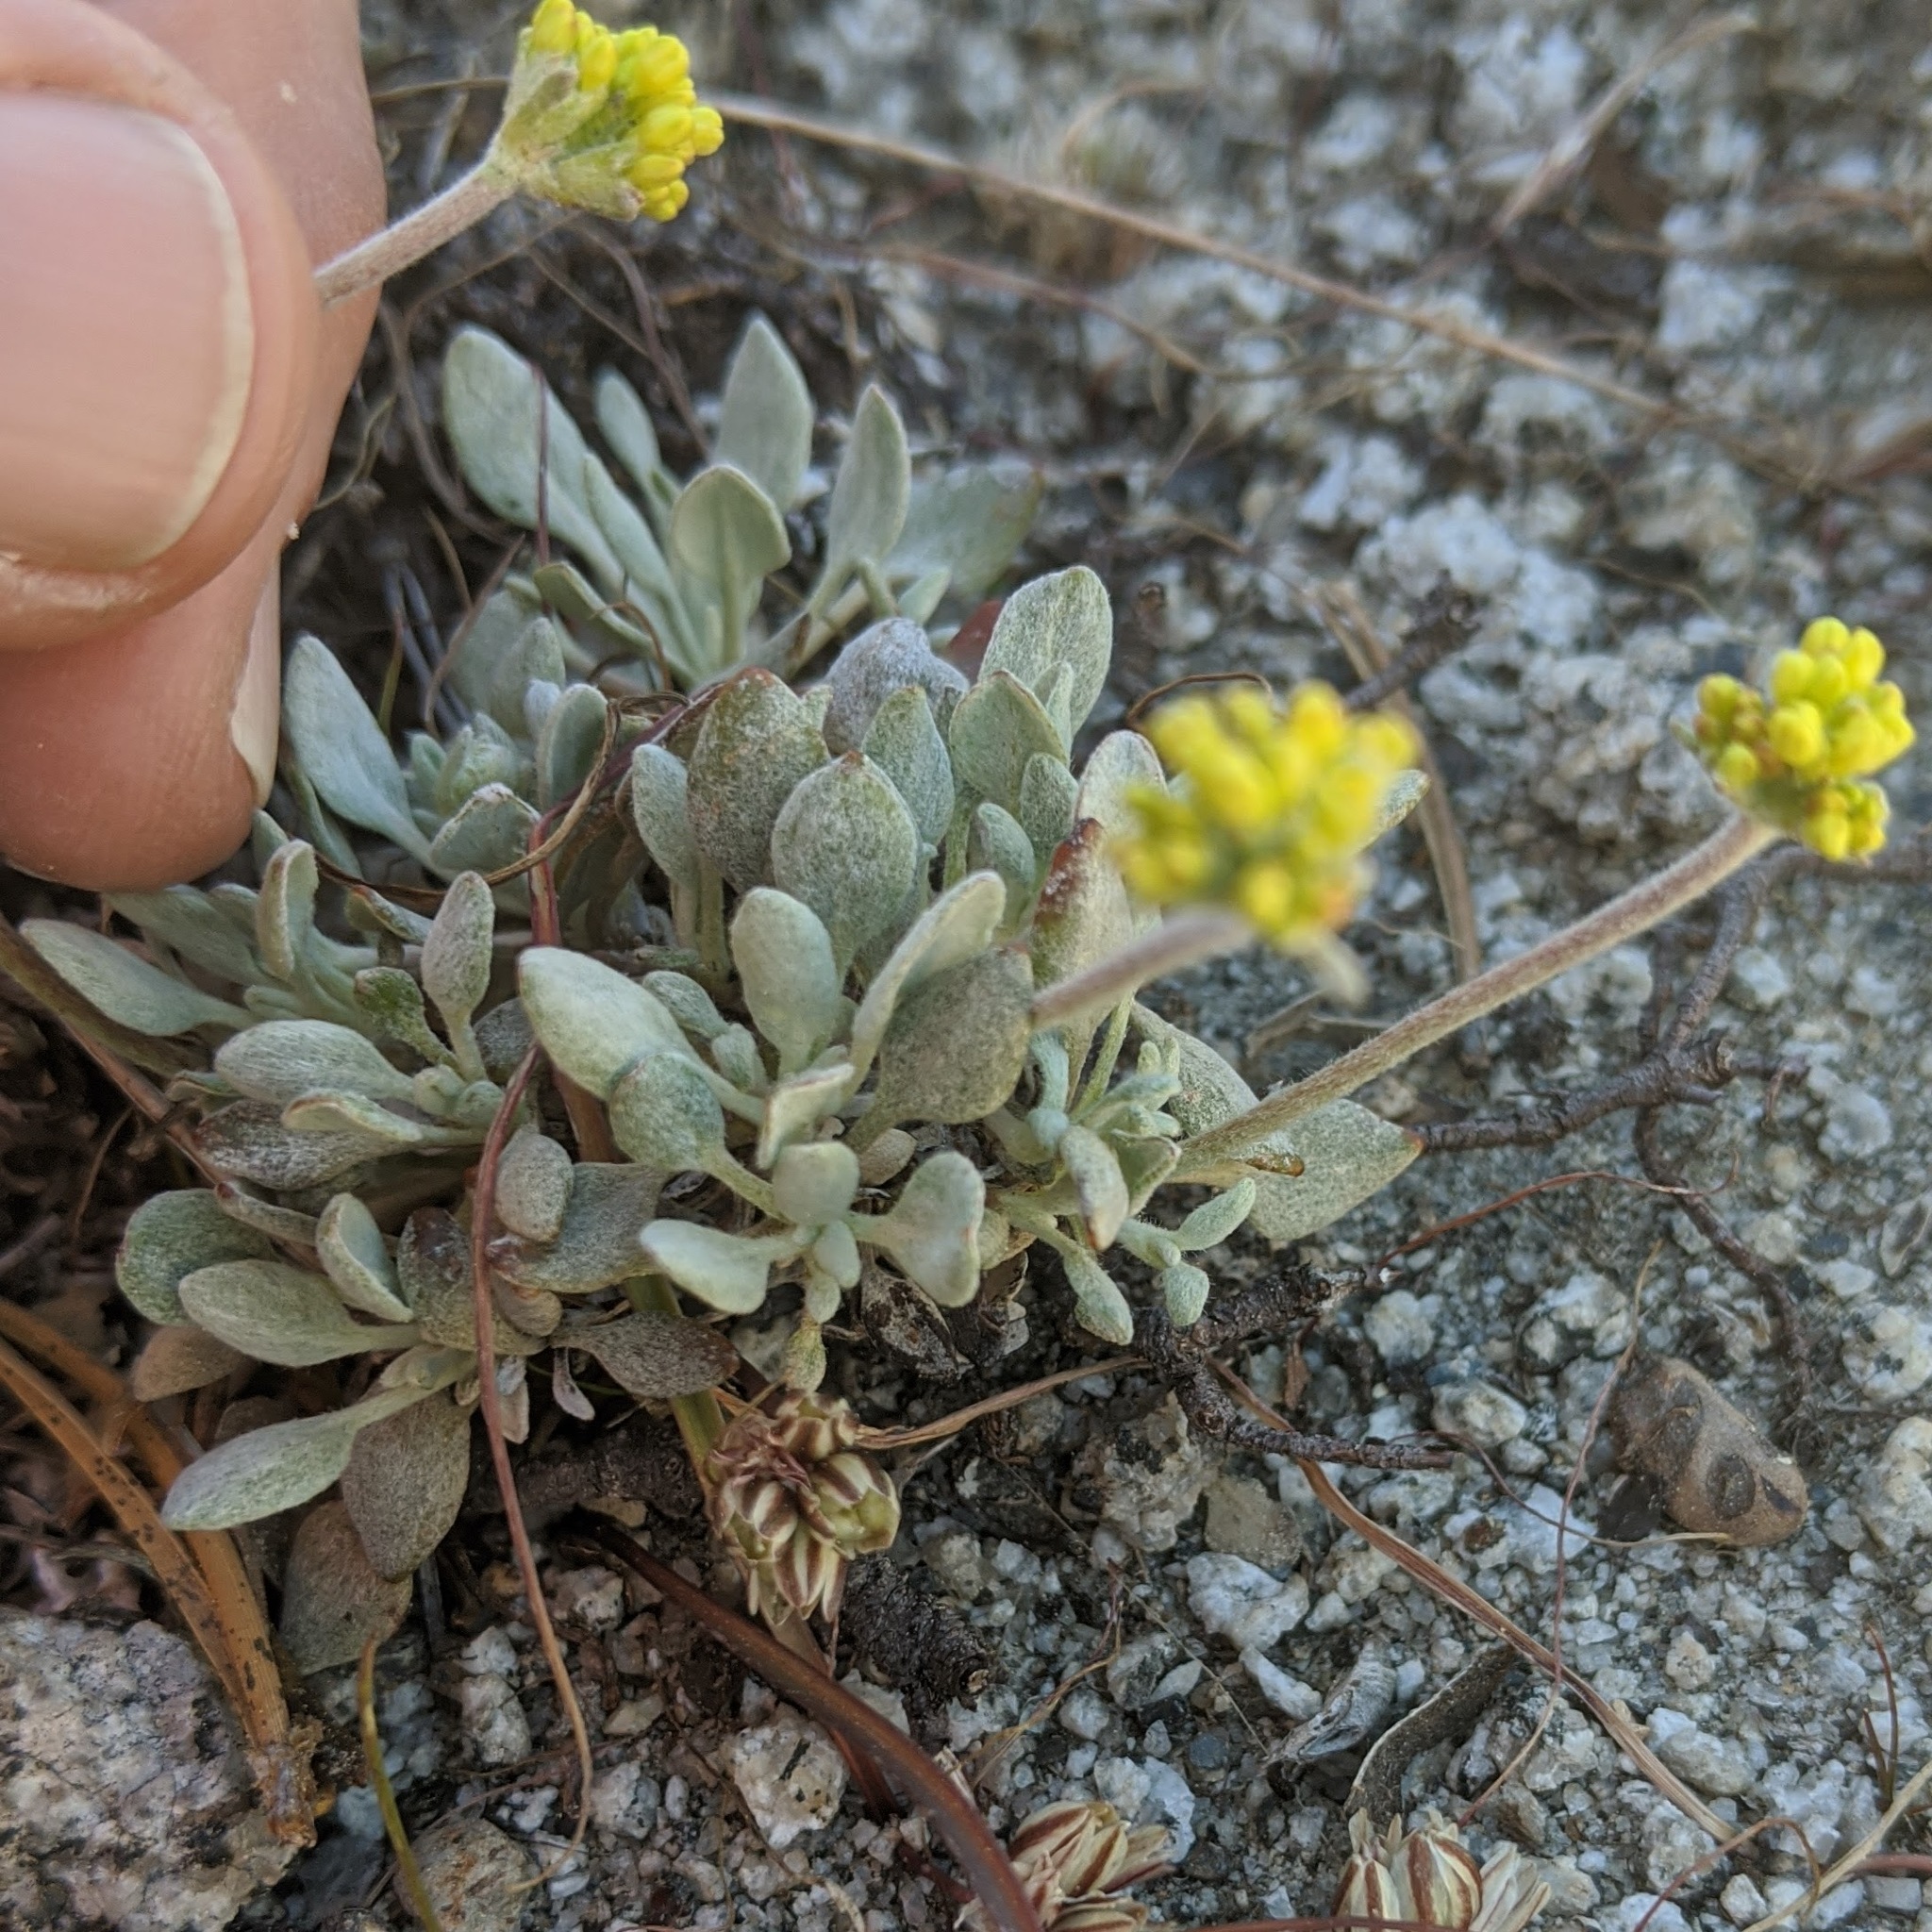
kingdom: Plantae
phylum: Tracheophyta
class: Magnoliopsida
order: Caryophyllales
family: Polygonaceae
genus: Eriogonum
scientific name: Eriogonum incanum
